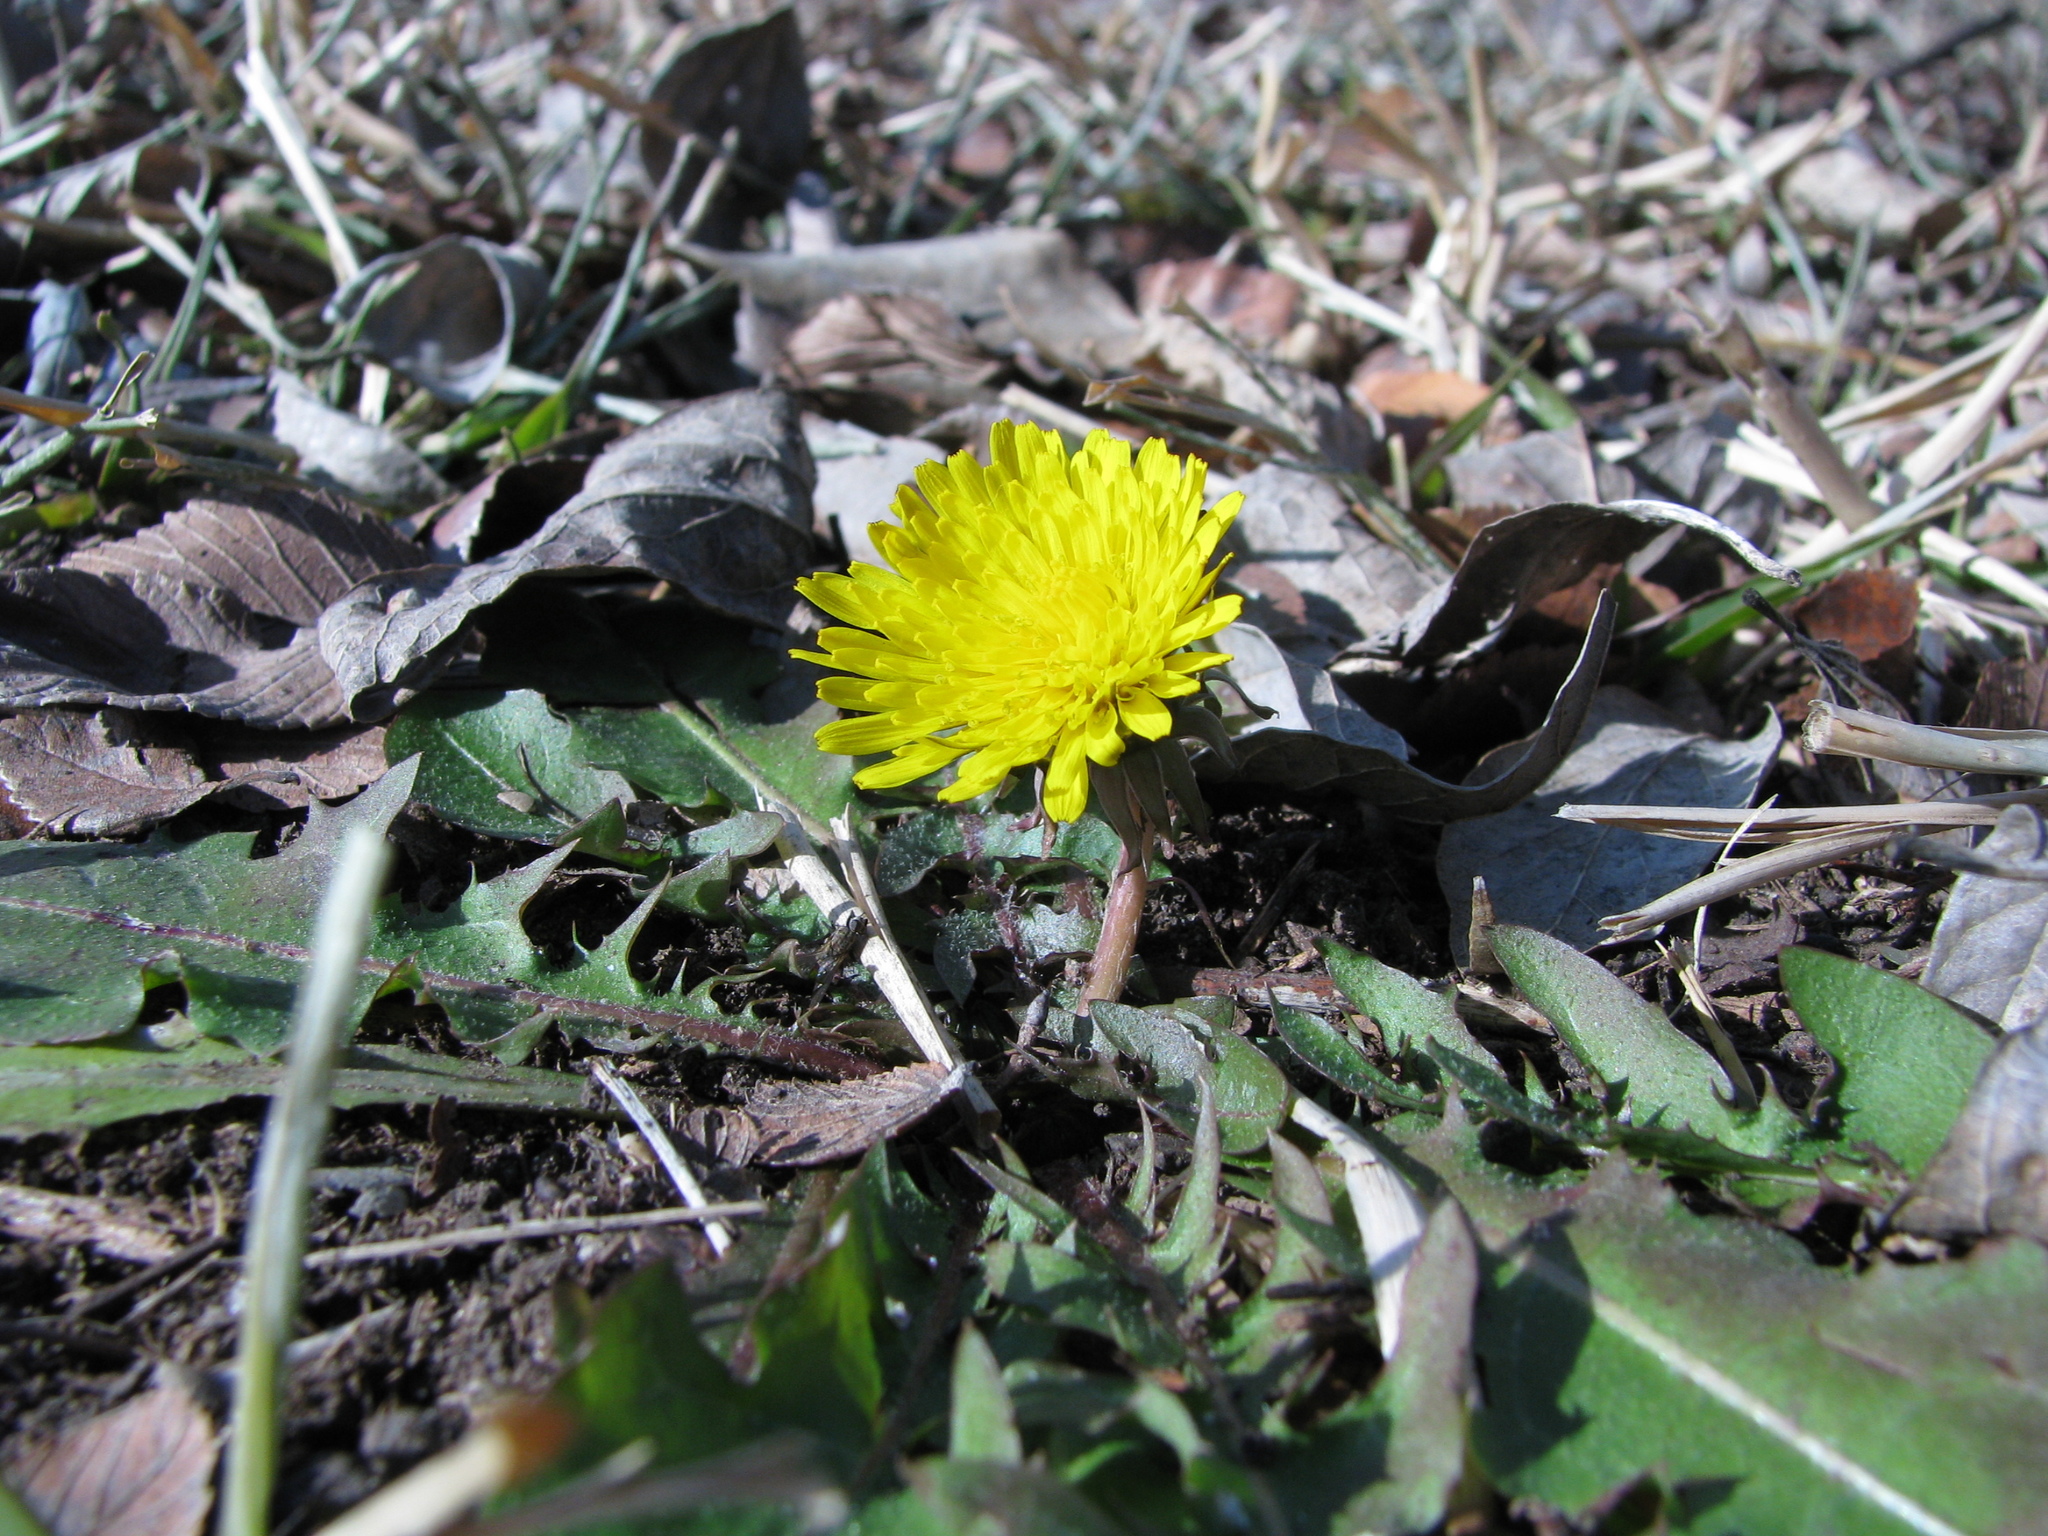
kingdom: Plantae
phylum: Tracheophyta
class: Magnoliopsida
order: Asterales
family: Asteraceae
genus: Taraxacum
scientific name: Taraxacum officinale
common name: Common dandelion
